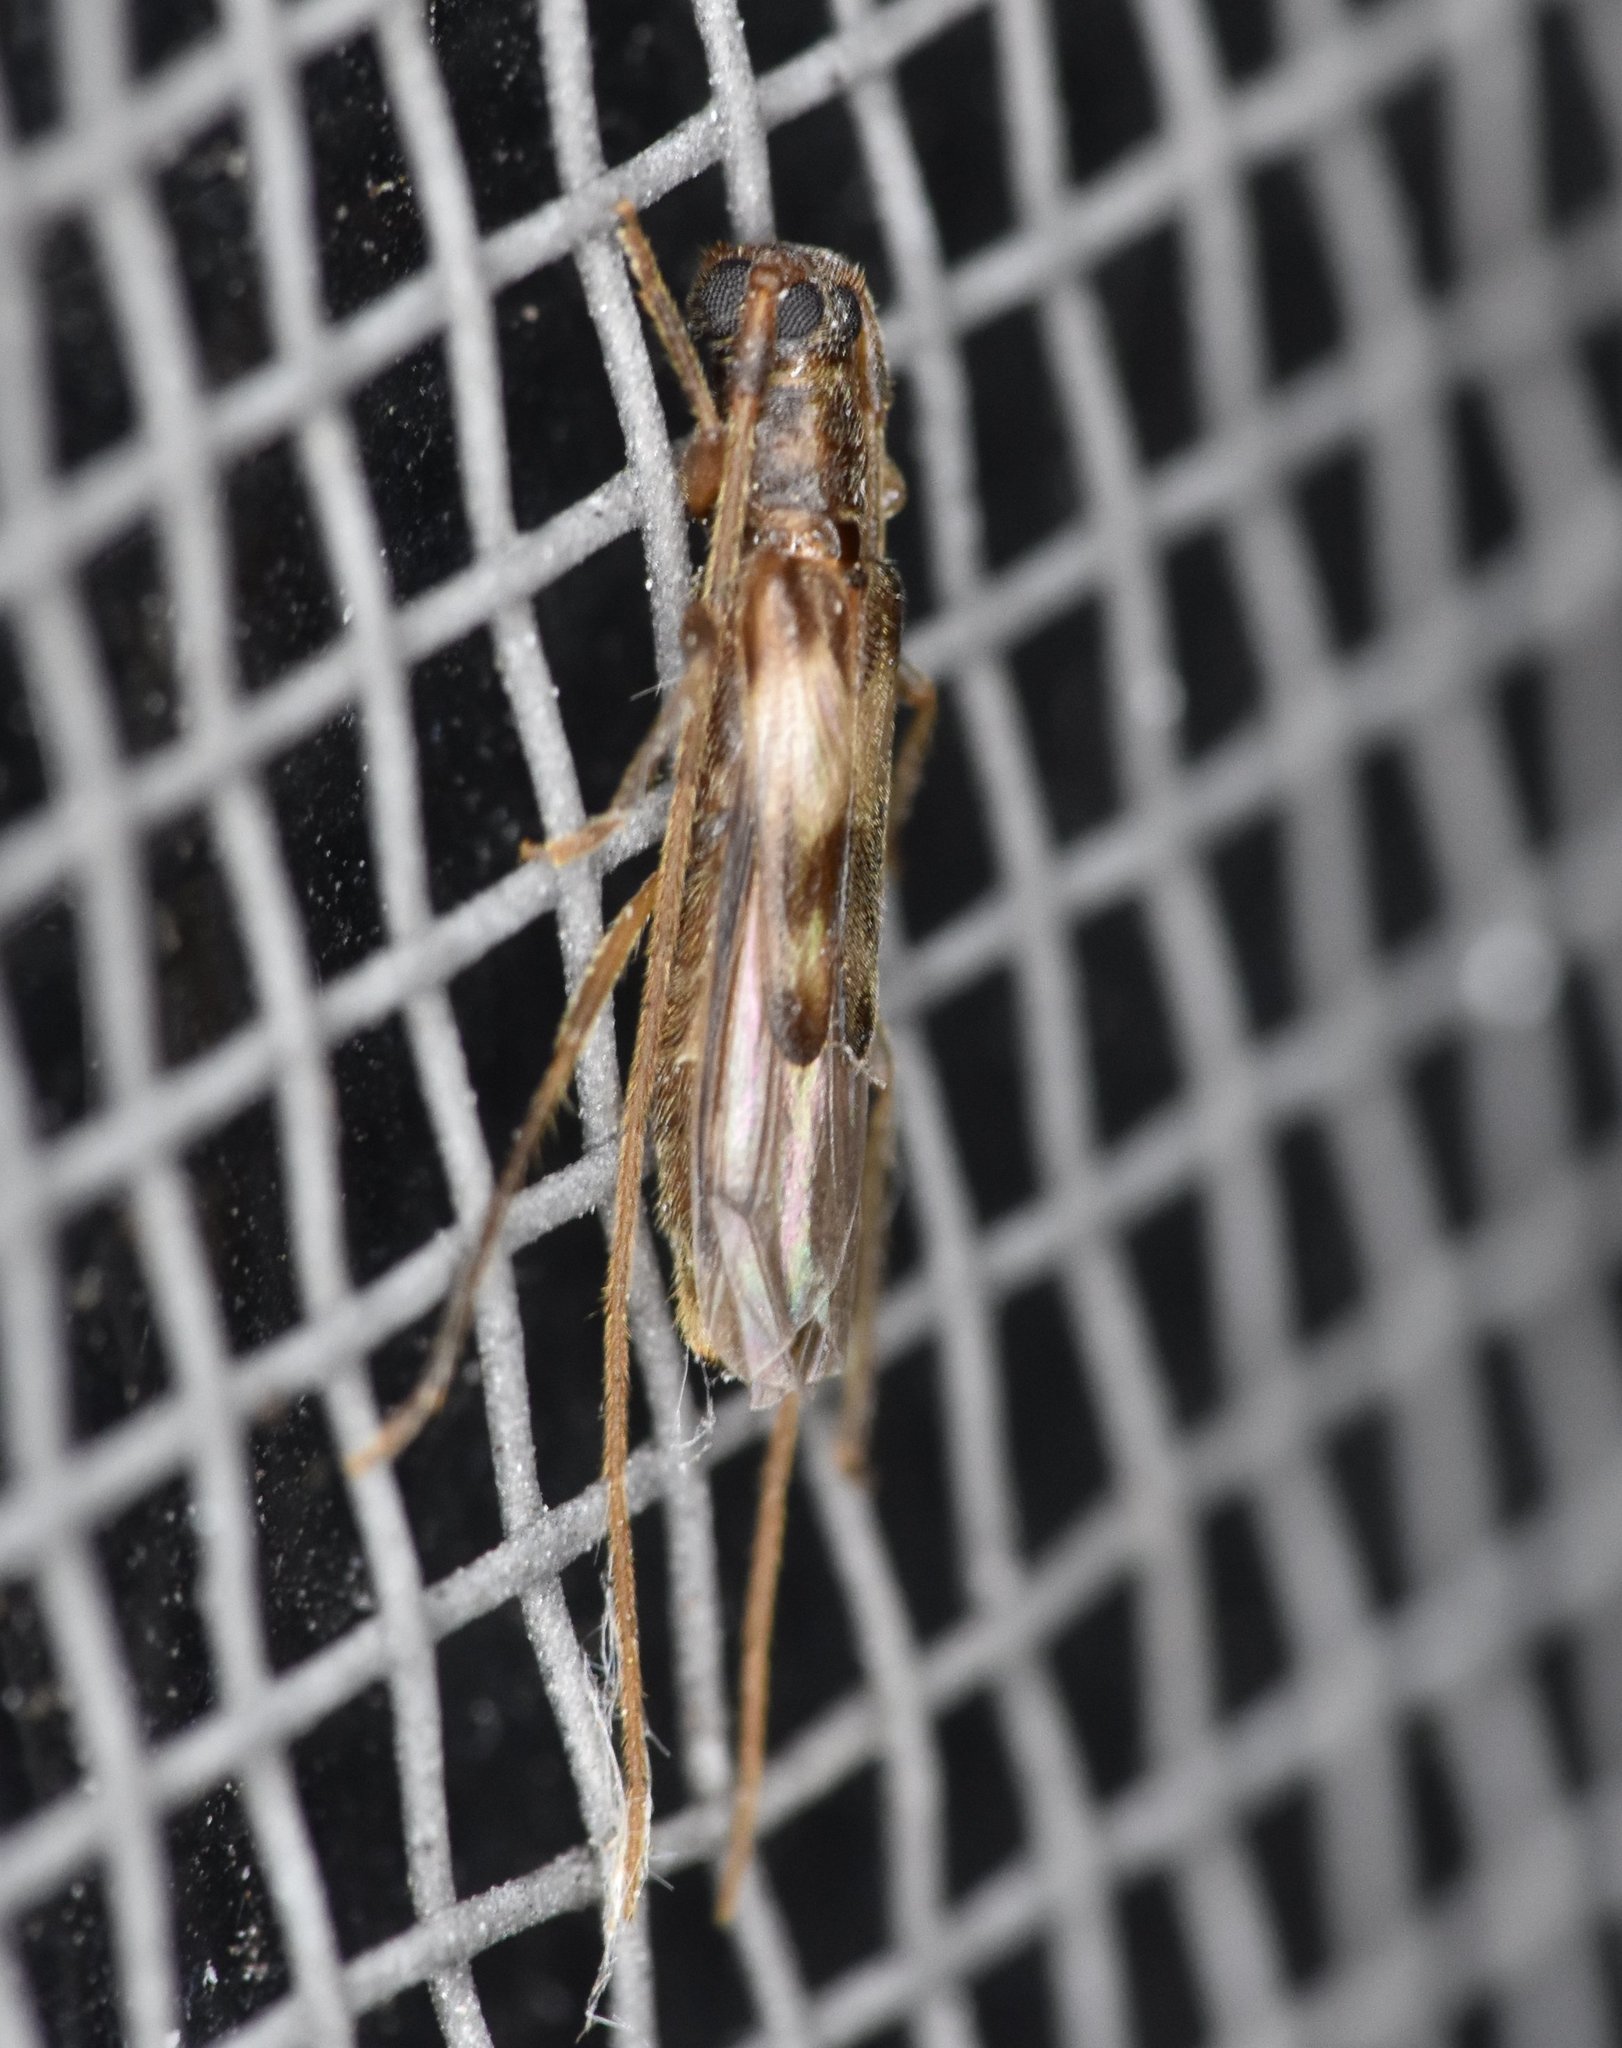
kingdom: Animalia
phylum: Arthropoda
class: Insecta
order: Coleoptera
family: Cerambycidae
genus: Methia
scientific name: Methia necydalea
